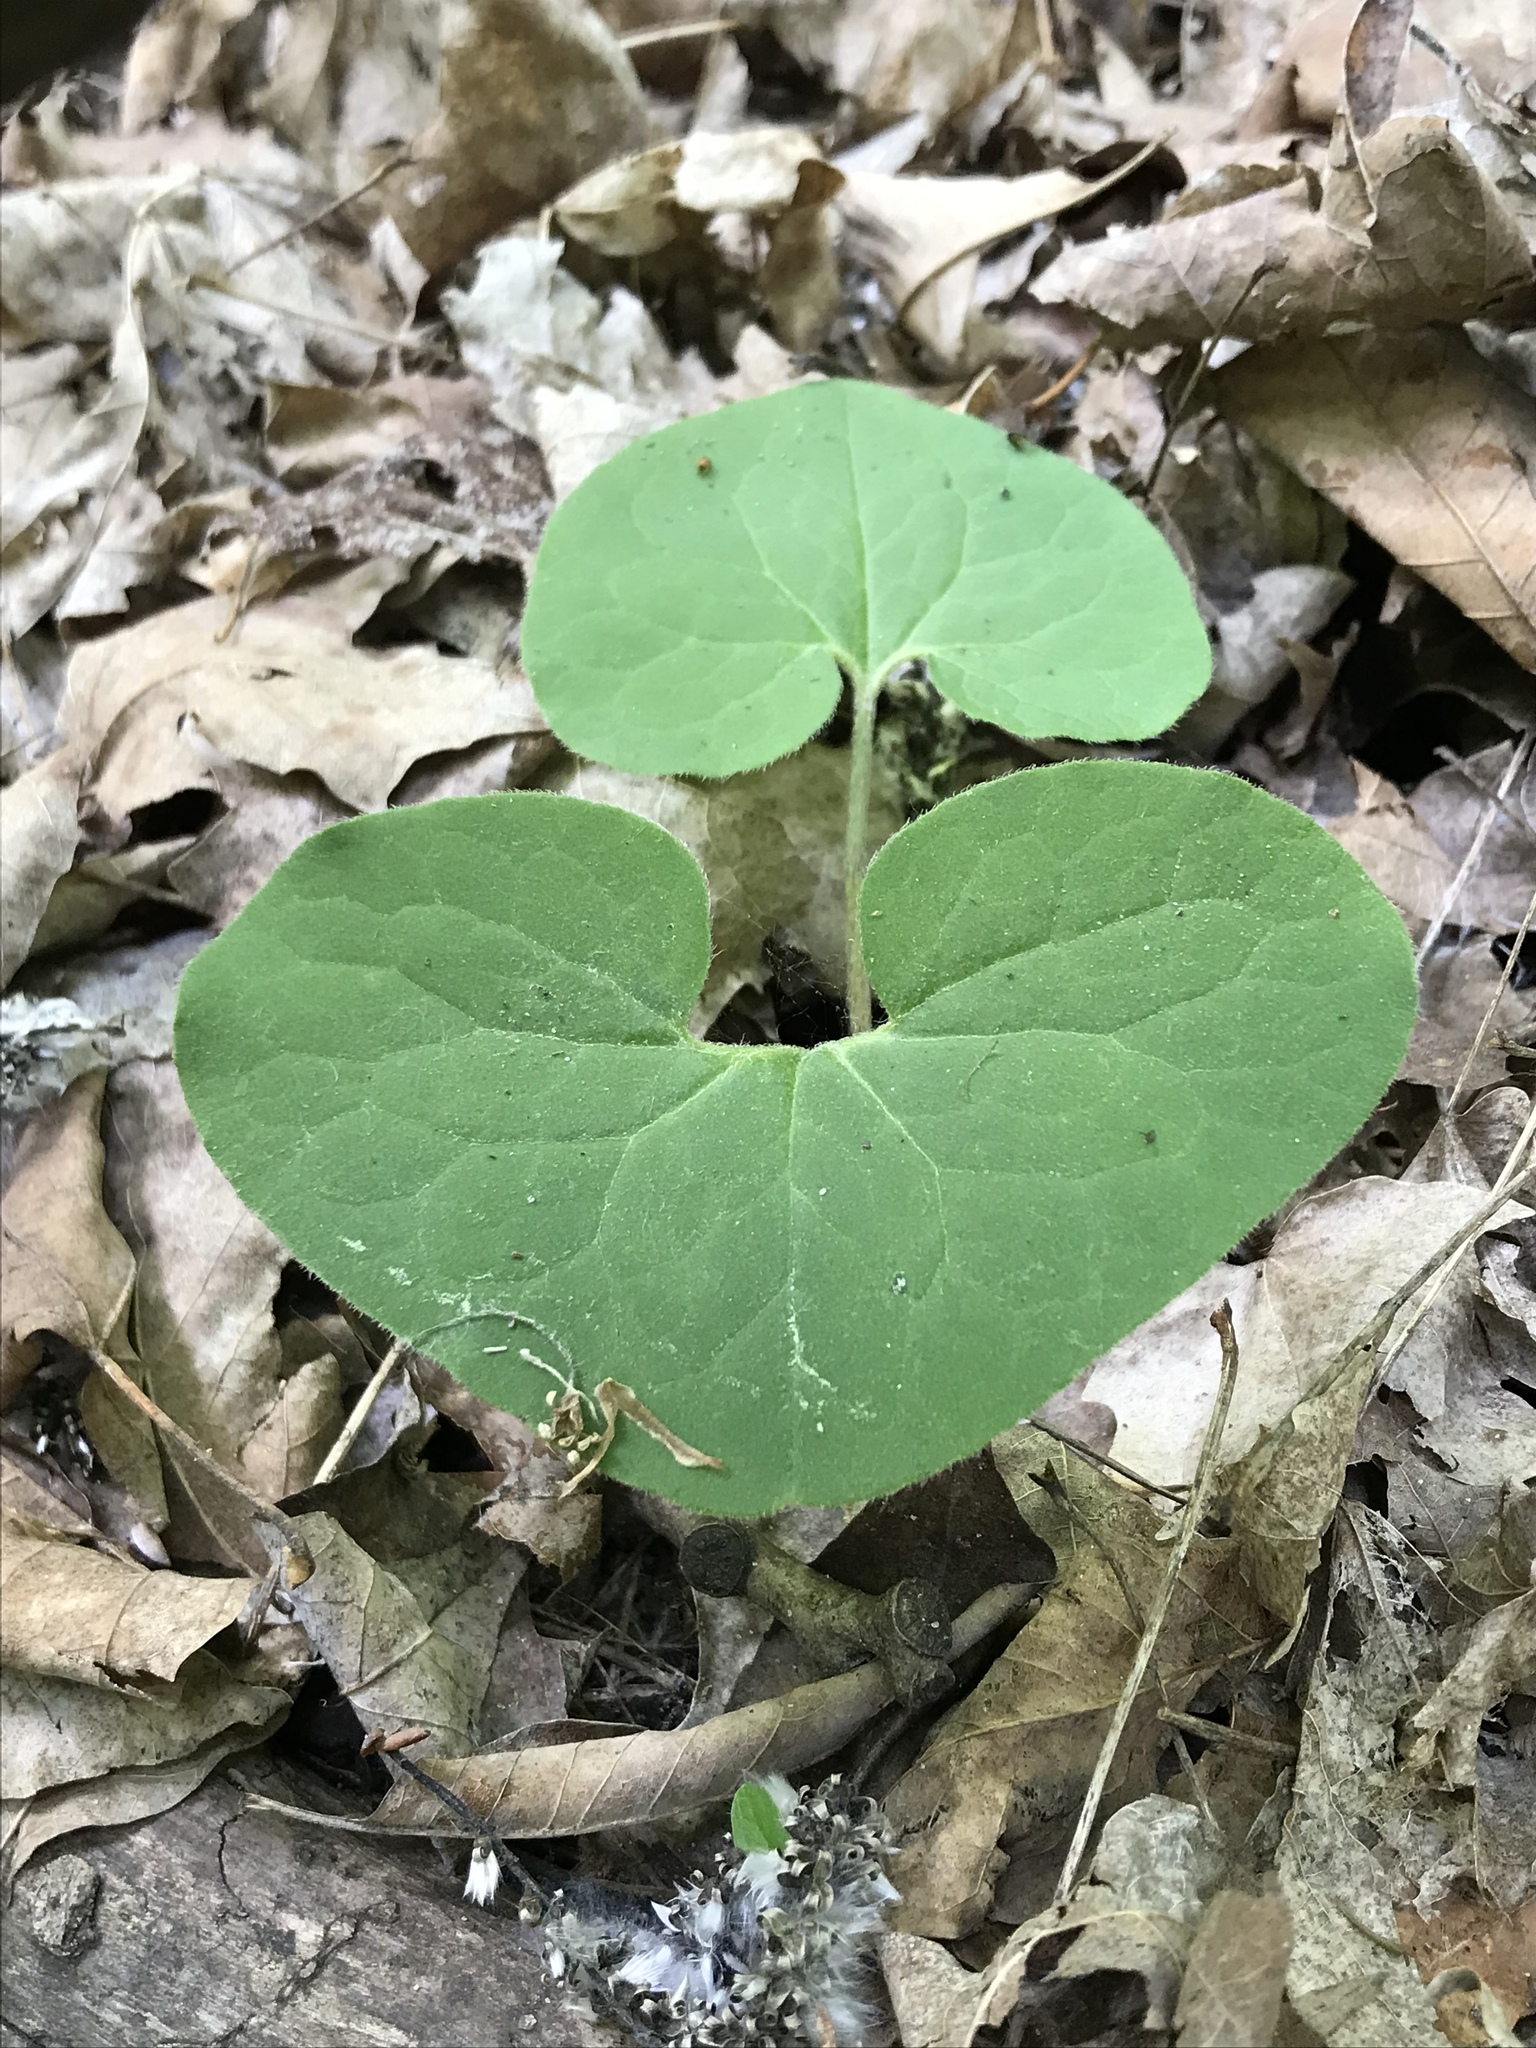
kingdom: Plantae
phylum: Tracheophyta
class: Magnoliopsida
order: Piperales
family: Aristolochiaceae
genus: Asarum
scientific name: Asarum canadense
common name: Wild ginger
